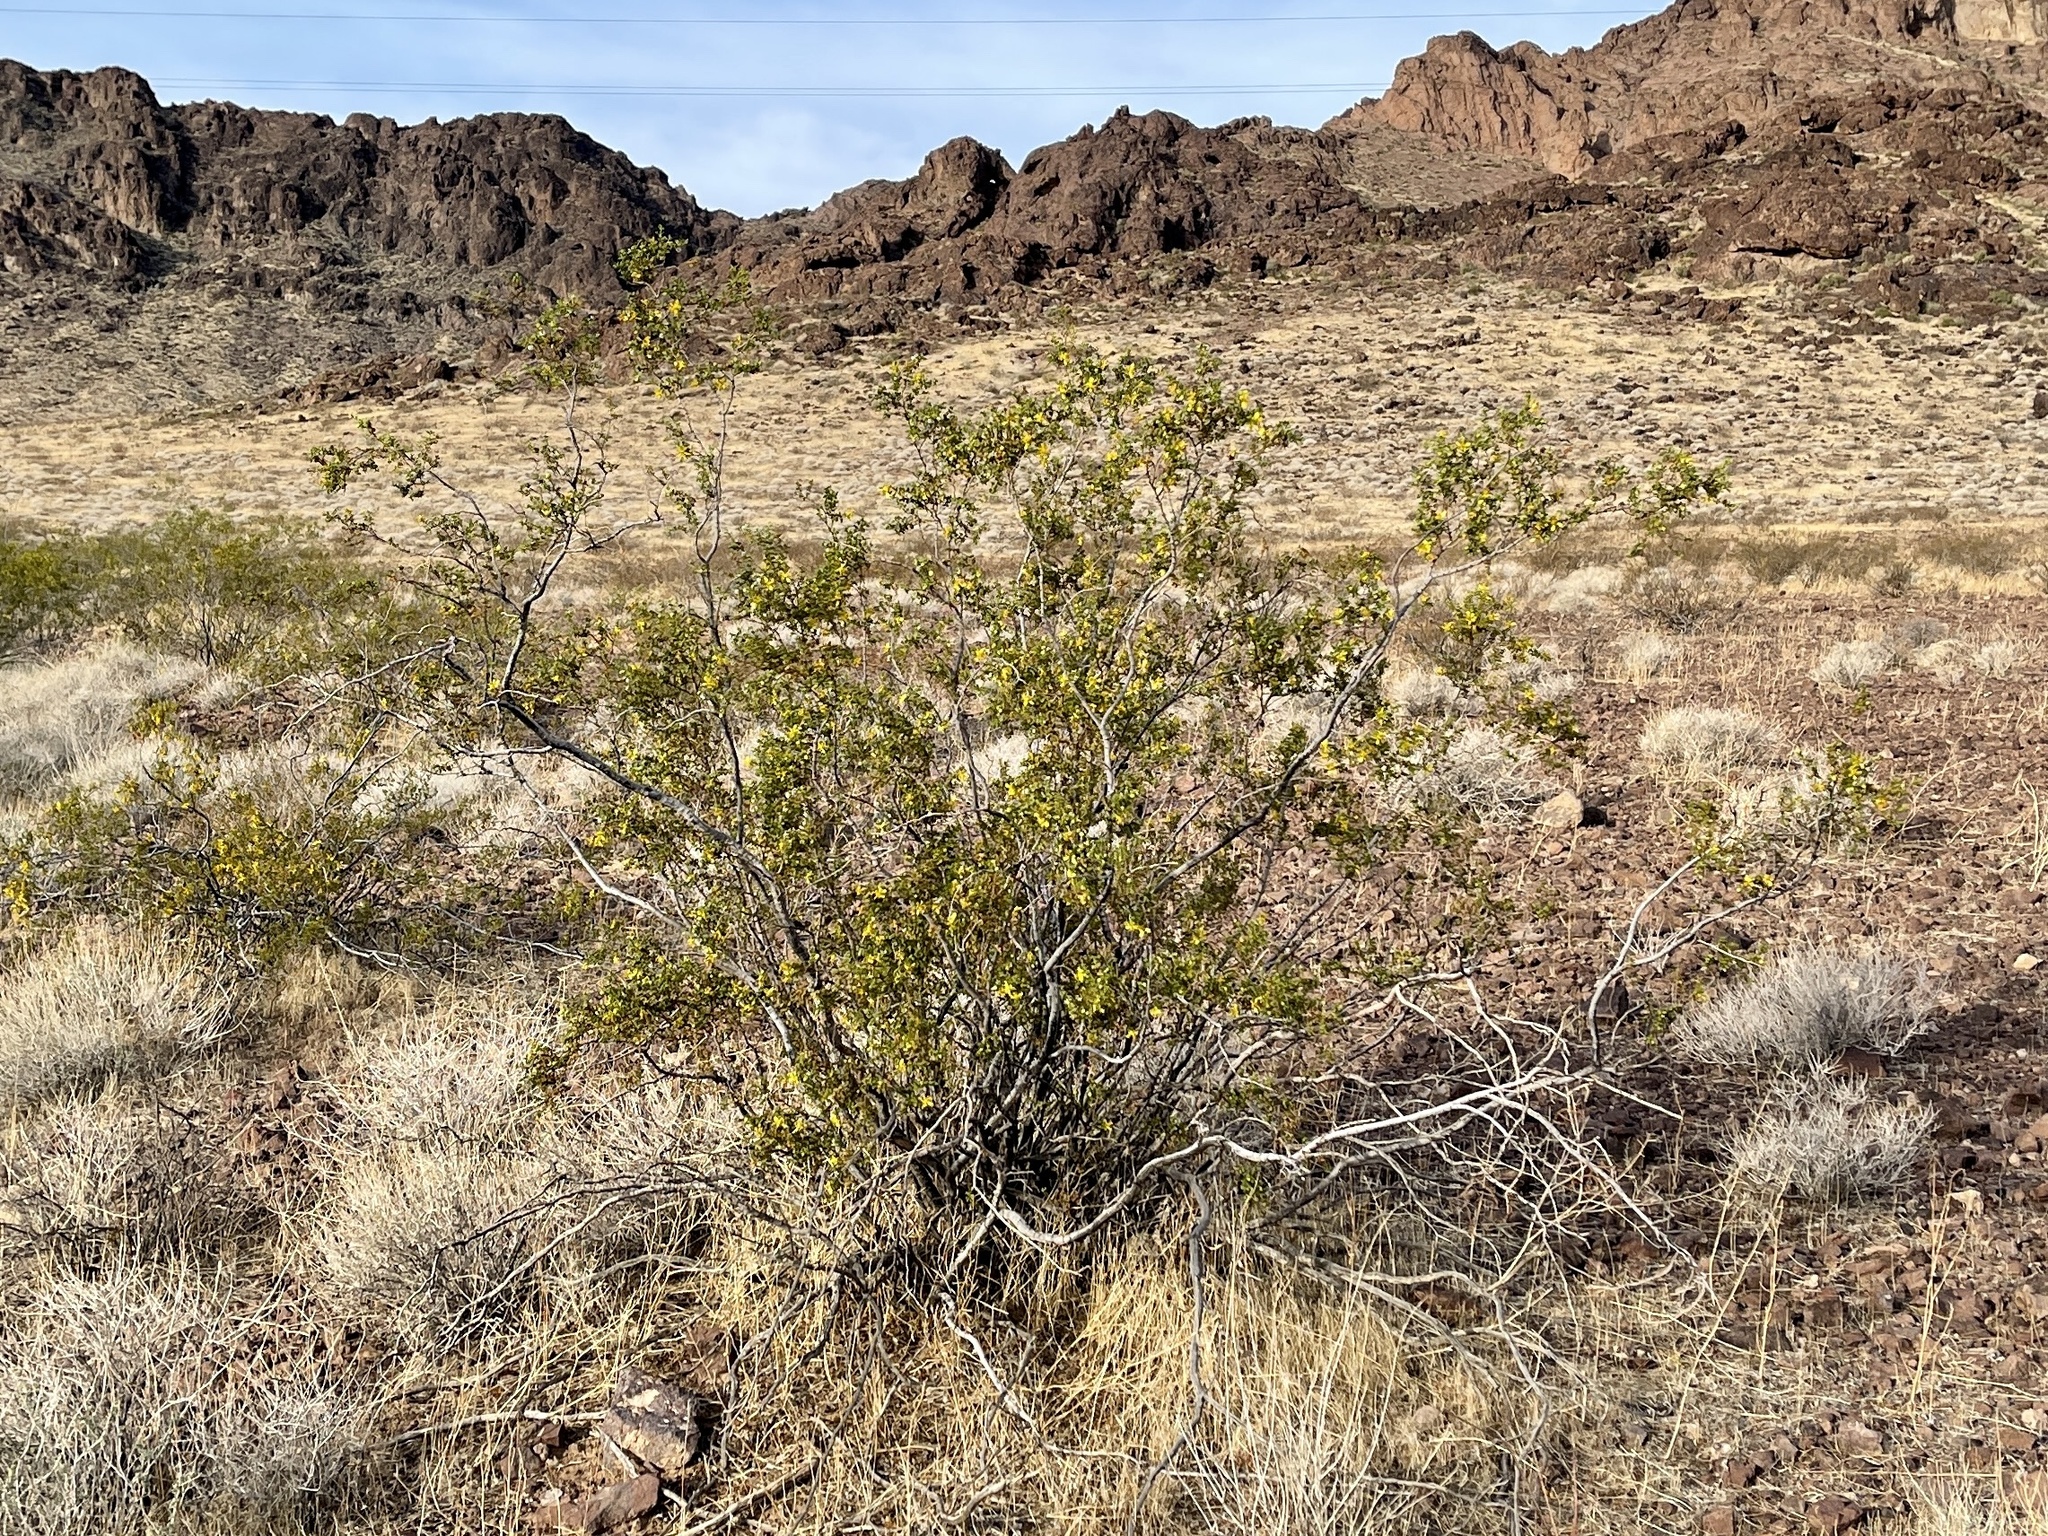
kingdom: Plantae
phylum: Tracheophyta
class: Magnoliopsida
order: Zygophyllales
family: Zygophyllaceae
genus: Larrea
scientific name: Larrea tridentata
